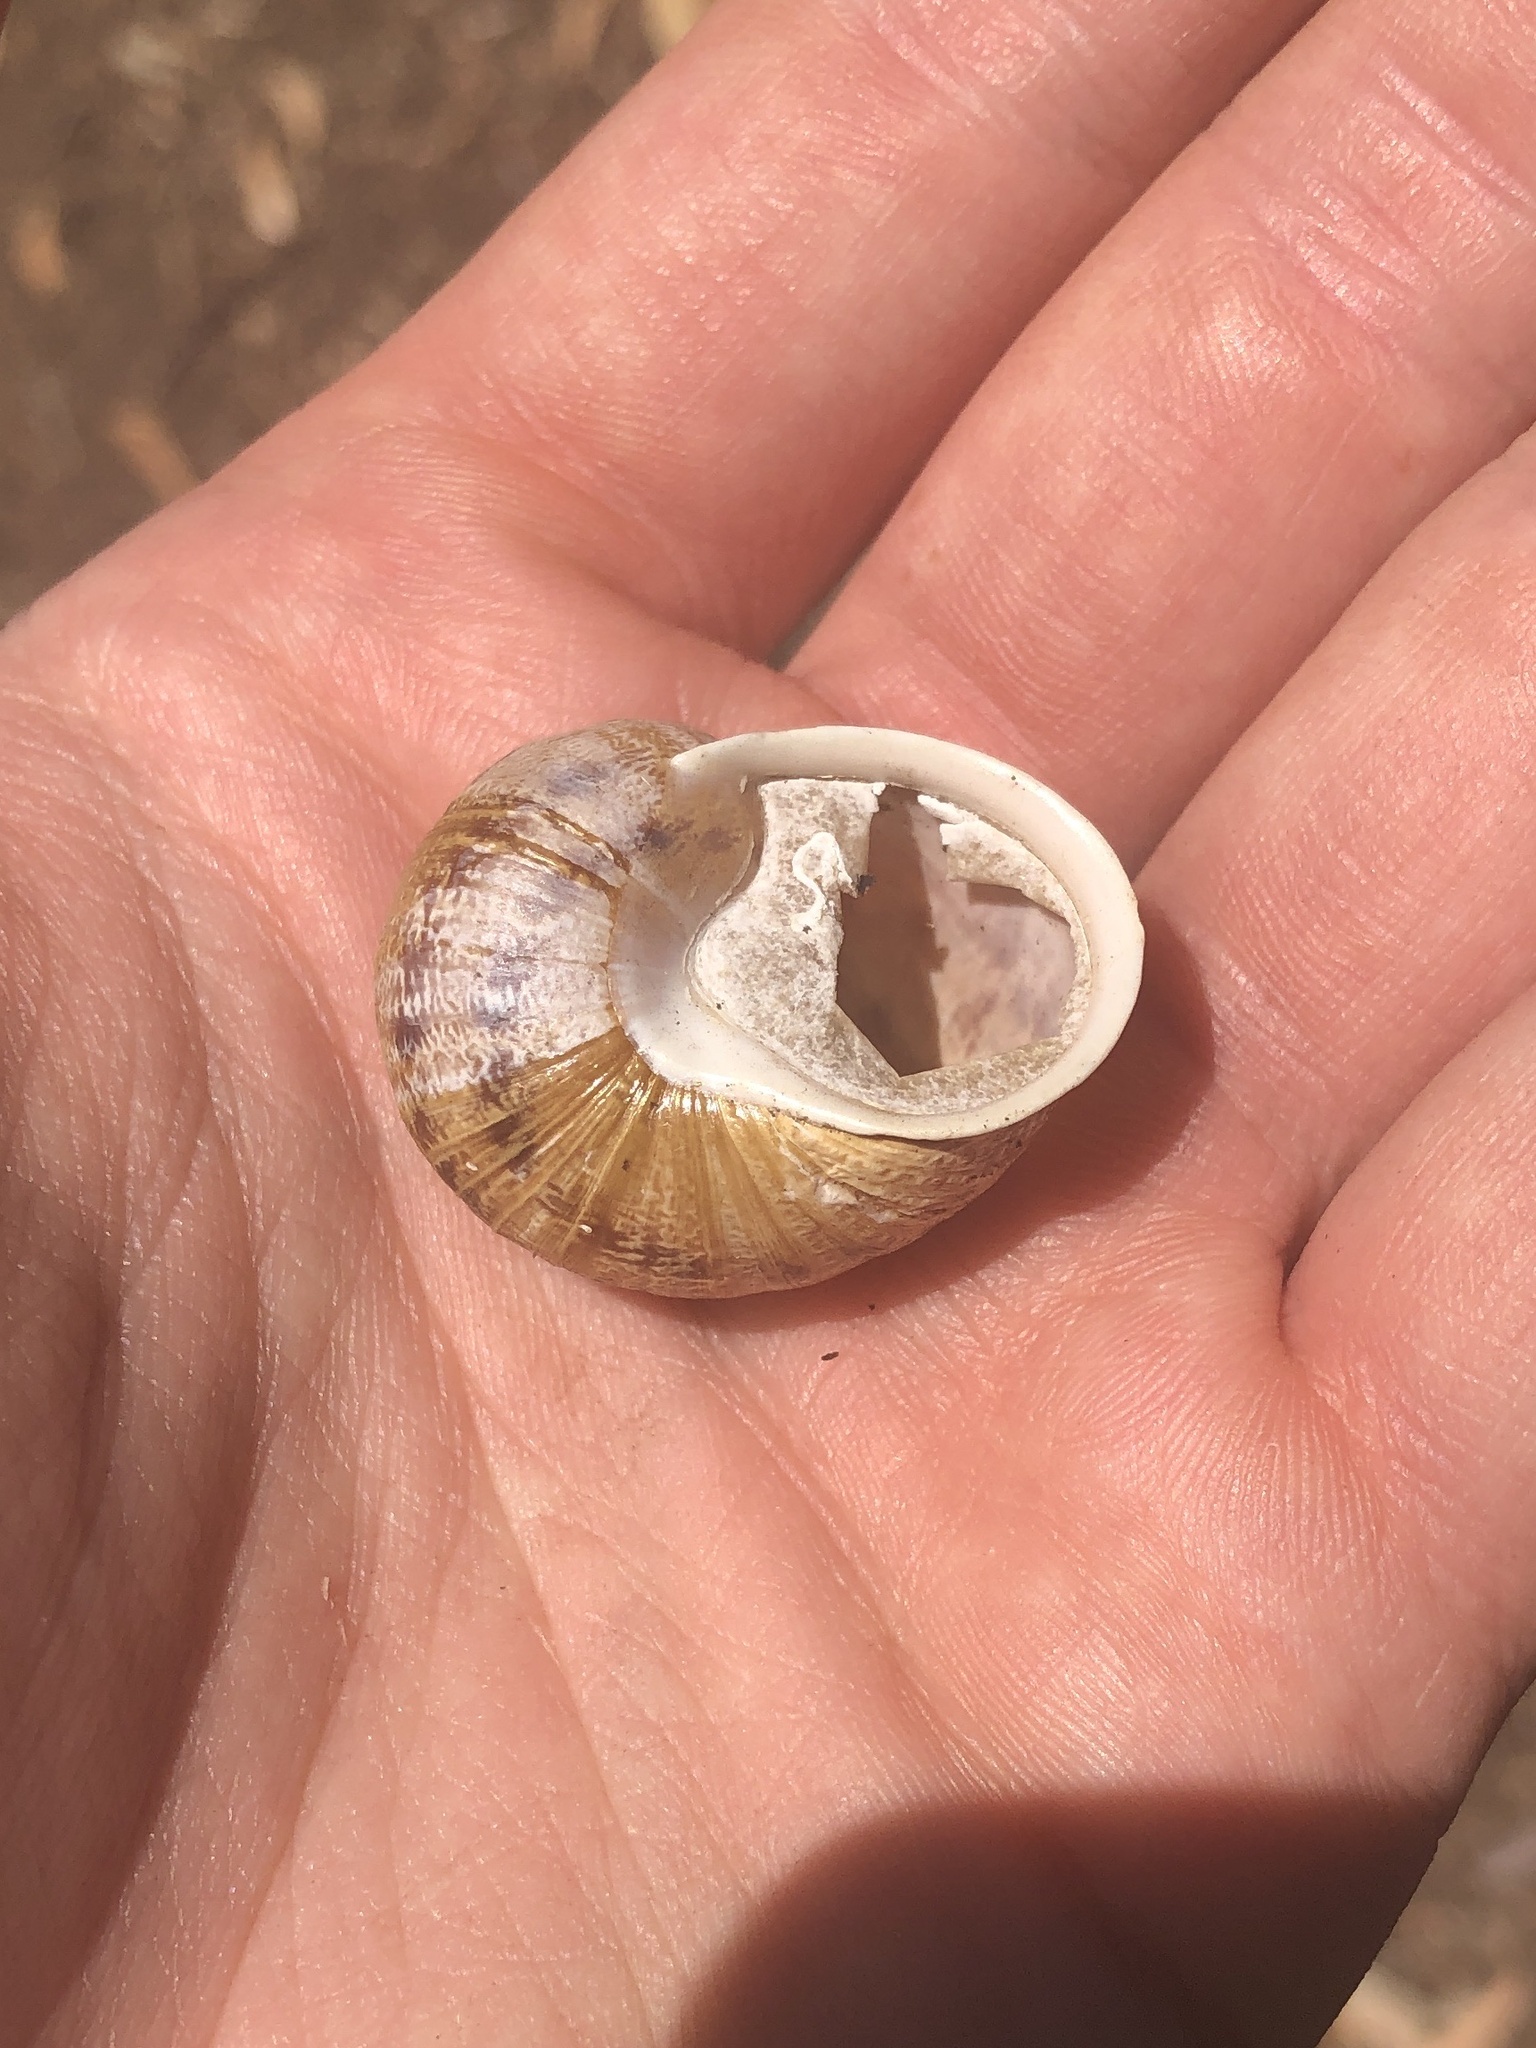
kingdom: Animalia
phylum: Mollusca
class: Gastropoda
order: Stylommatophora
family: Helicidae
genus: Cornu
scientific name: Cornu aspersum
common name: Brown garden snail
